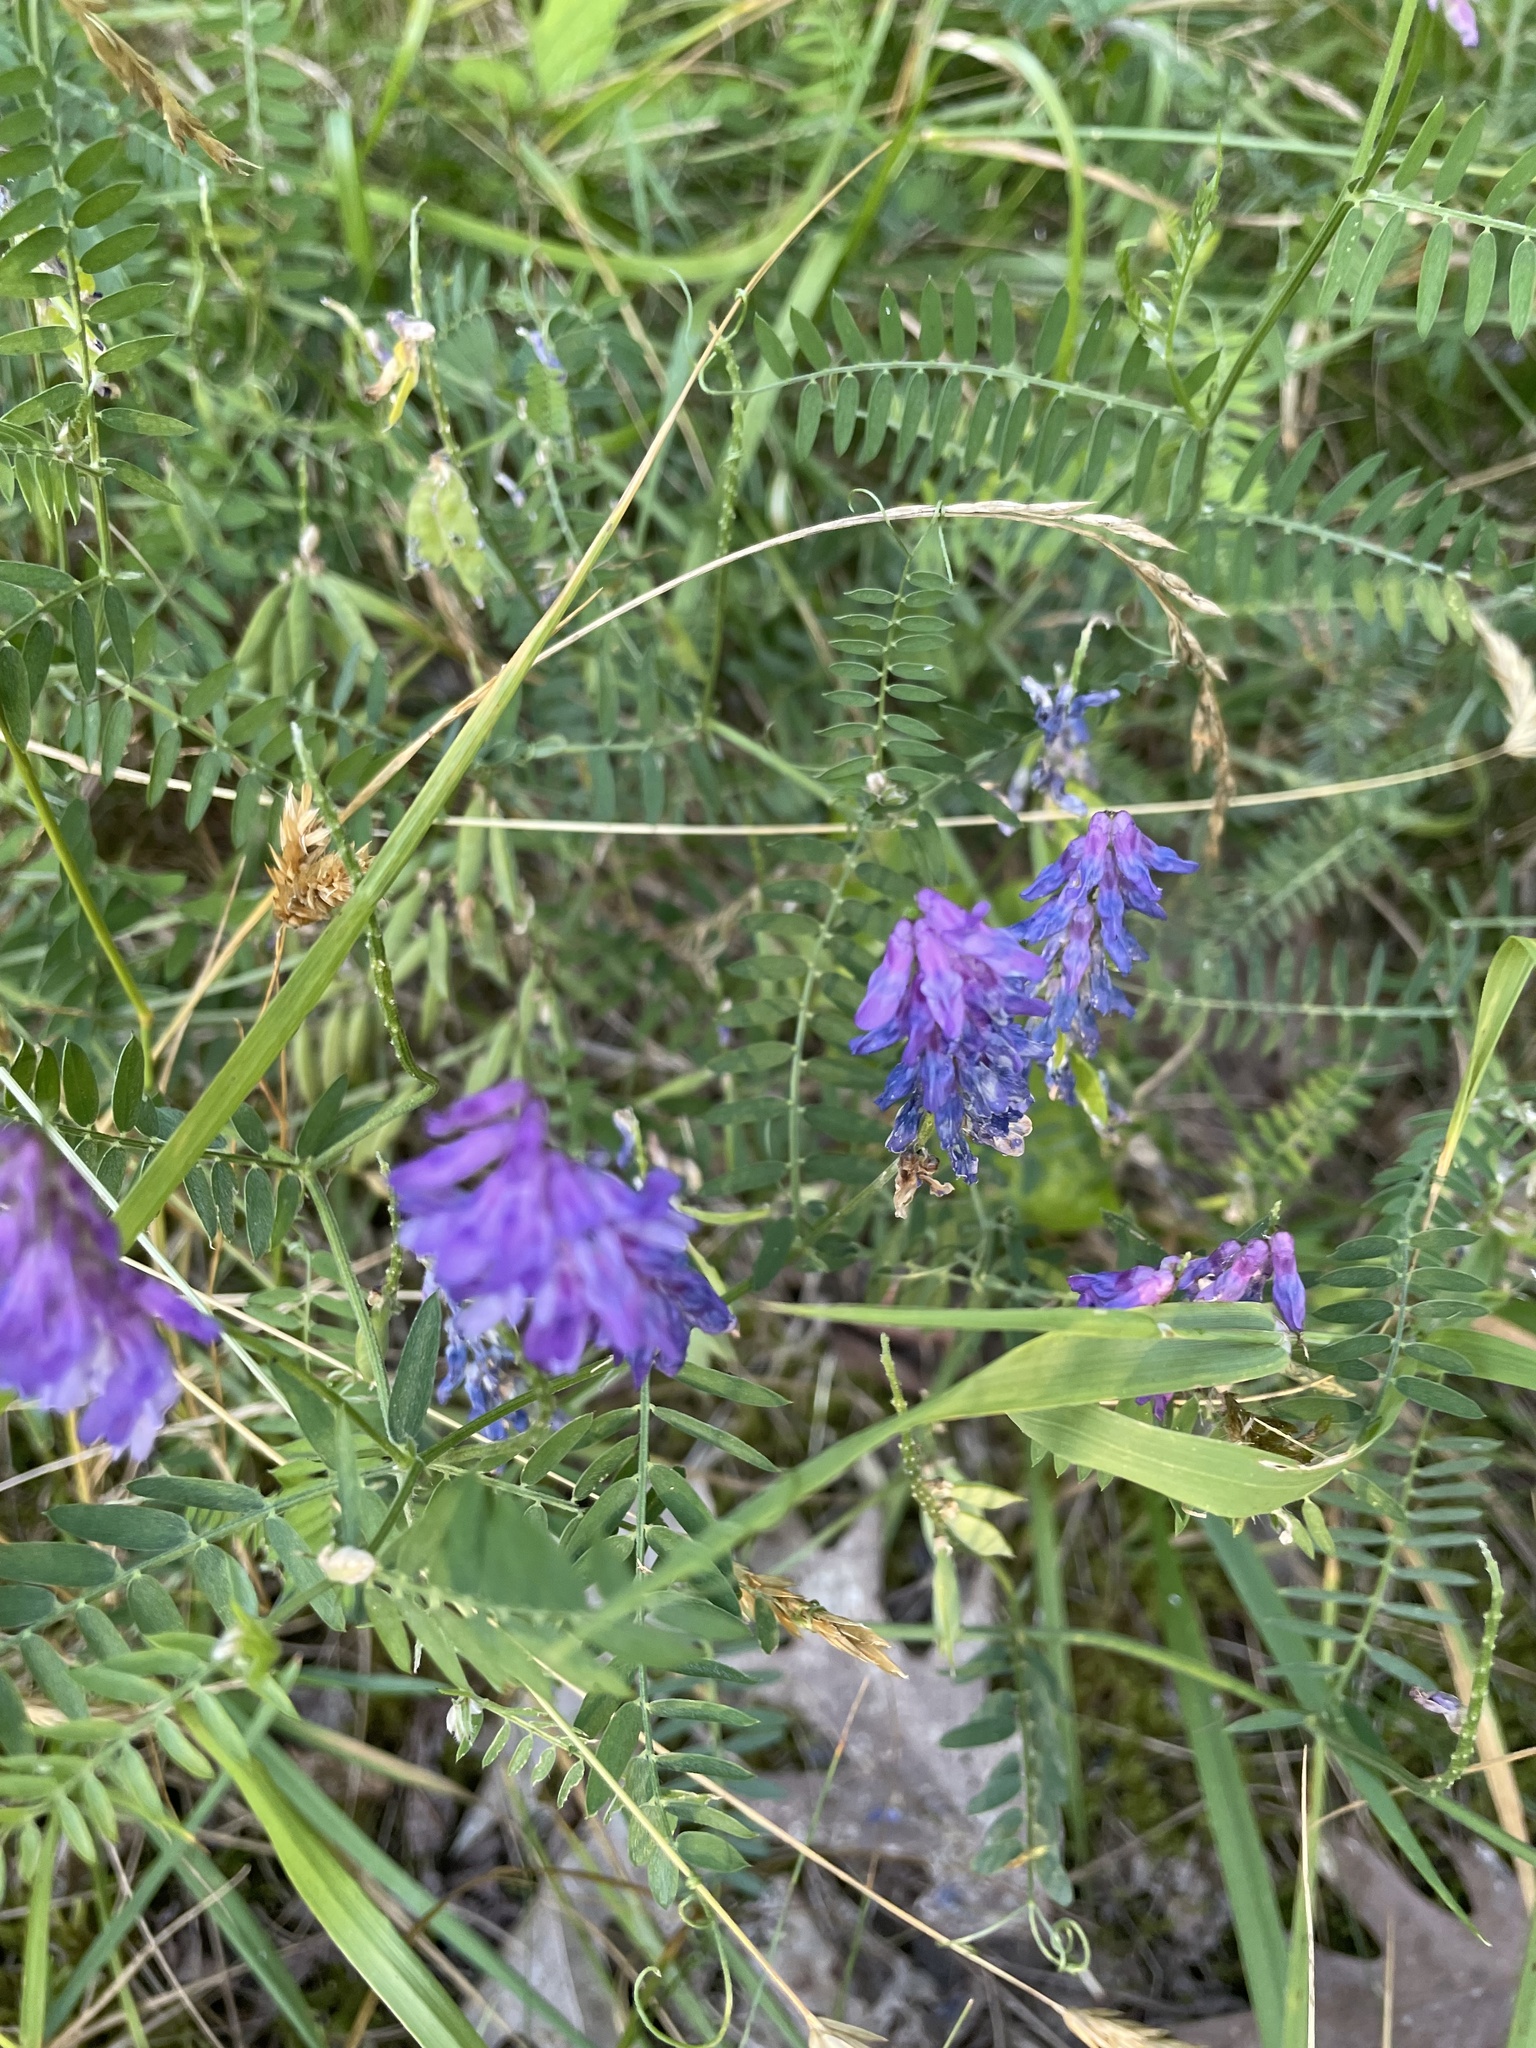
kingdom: Plantae
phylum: Tracheophyta
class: Magnoliopsida
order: Fabales
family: Fabaceae
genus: Vicia
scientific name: Vicia cracca
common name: Bird vetch
